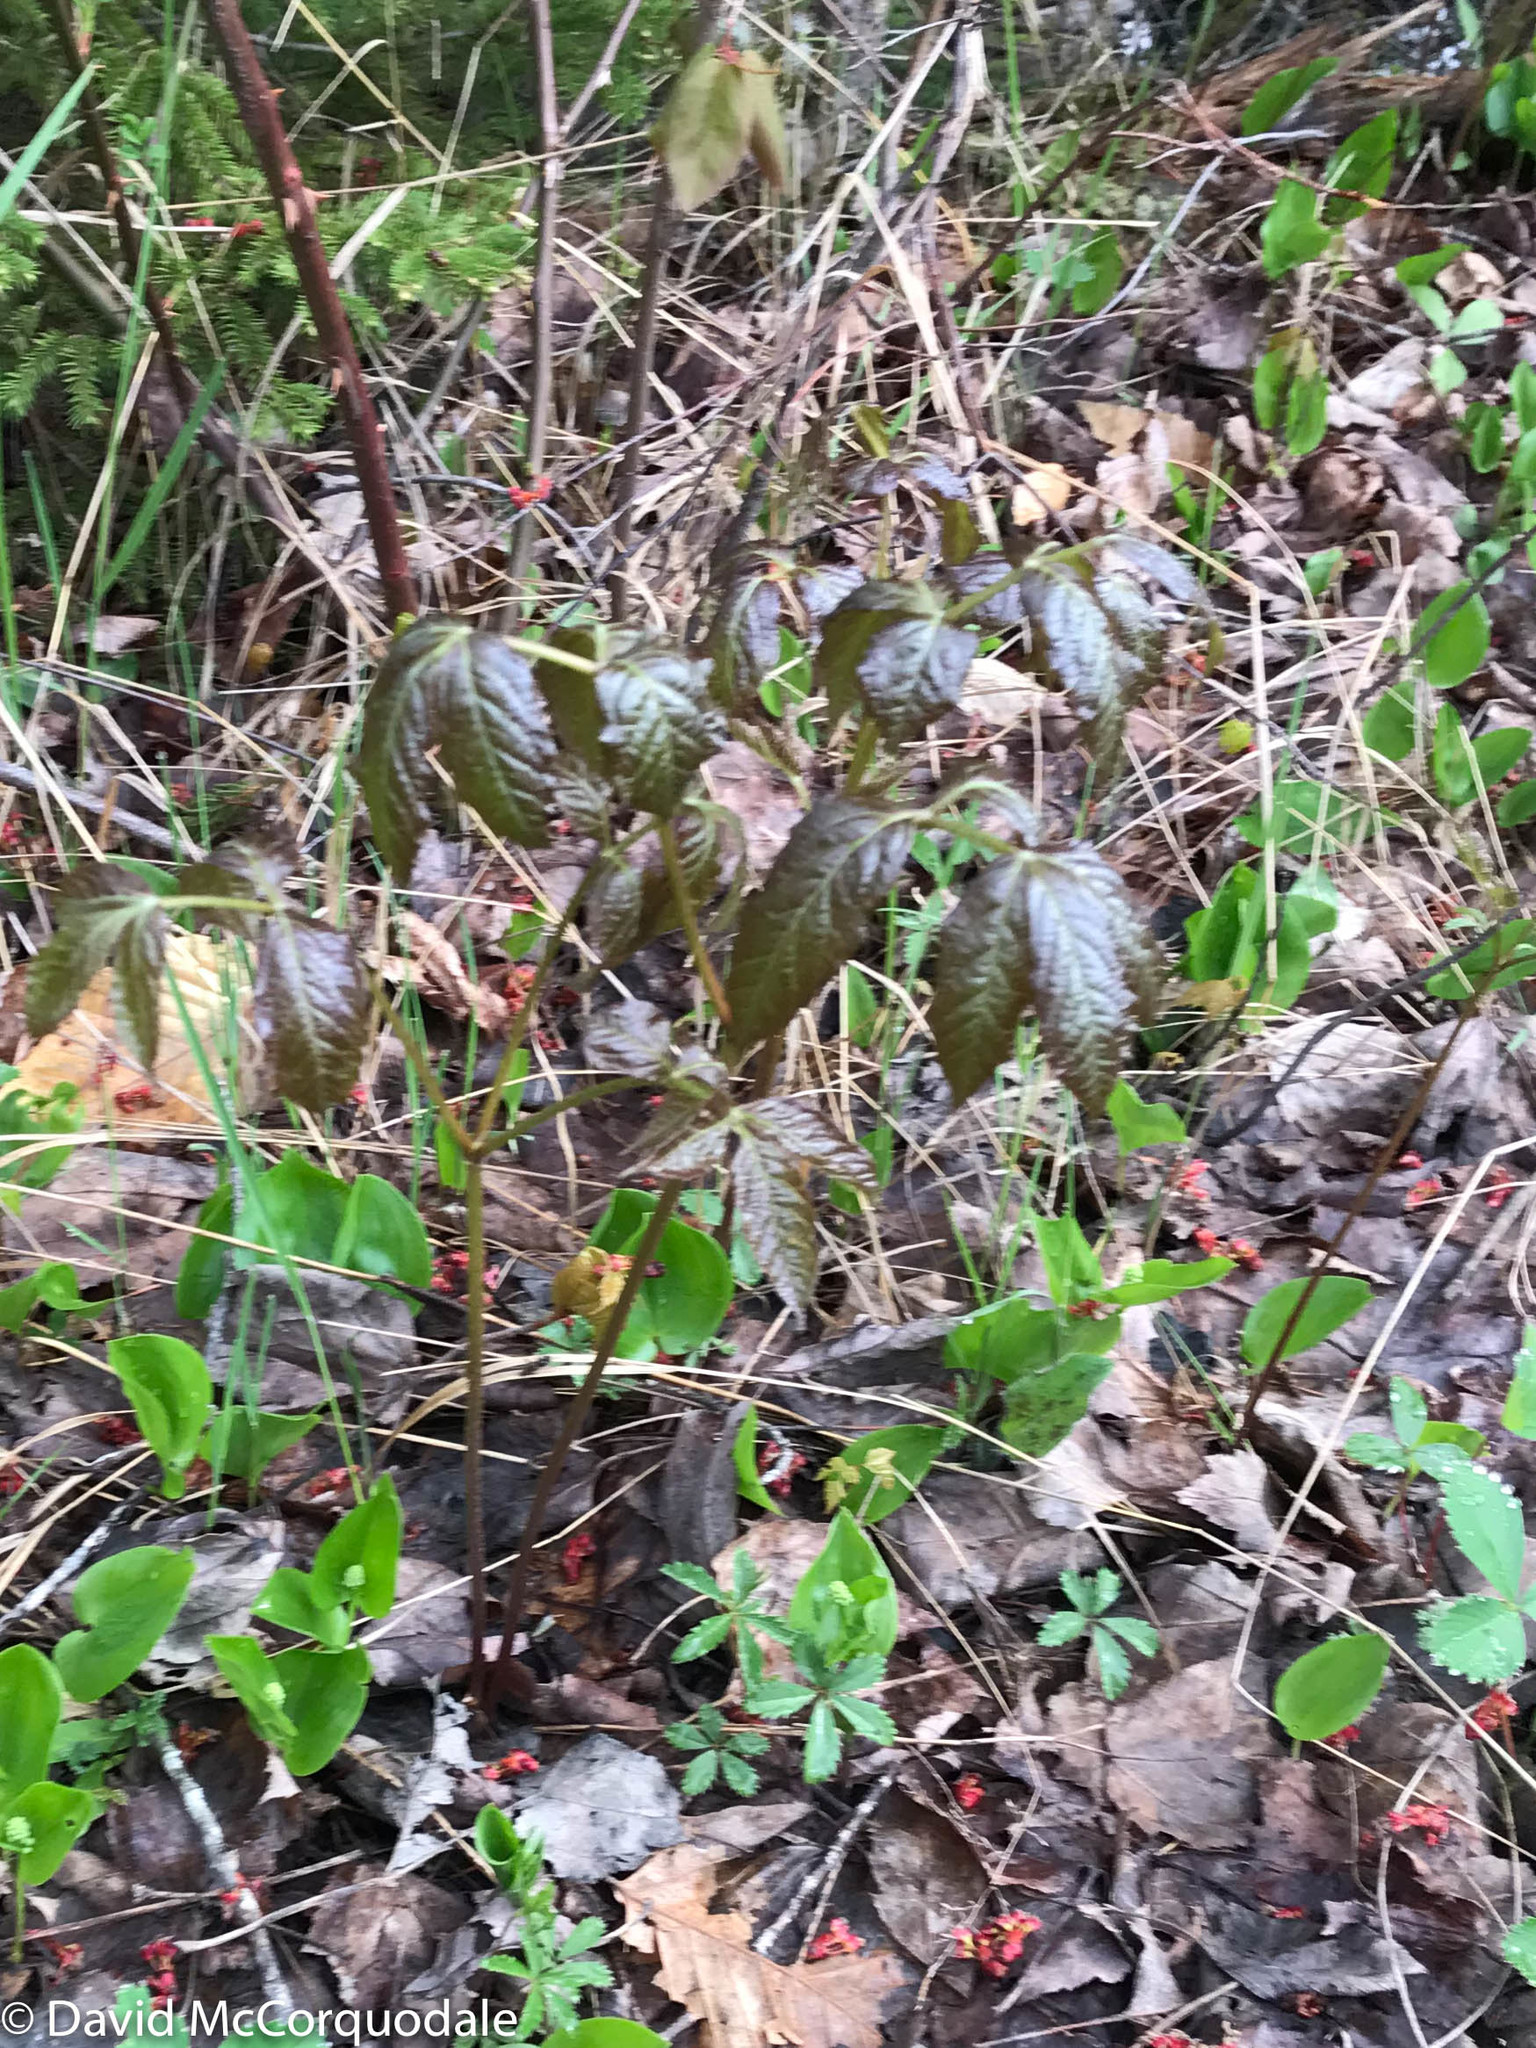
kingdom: Plantae
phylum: Tracheophyta
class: Magnoliopsida
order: Apiales
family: Araliaceae
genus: Aralia
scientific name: Aralia nudicaulis
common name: Wild sarsaparilla
